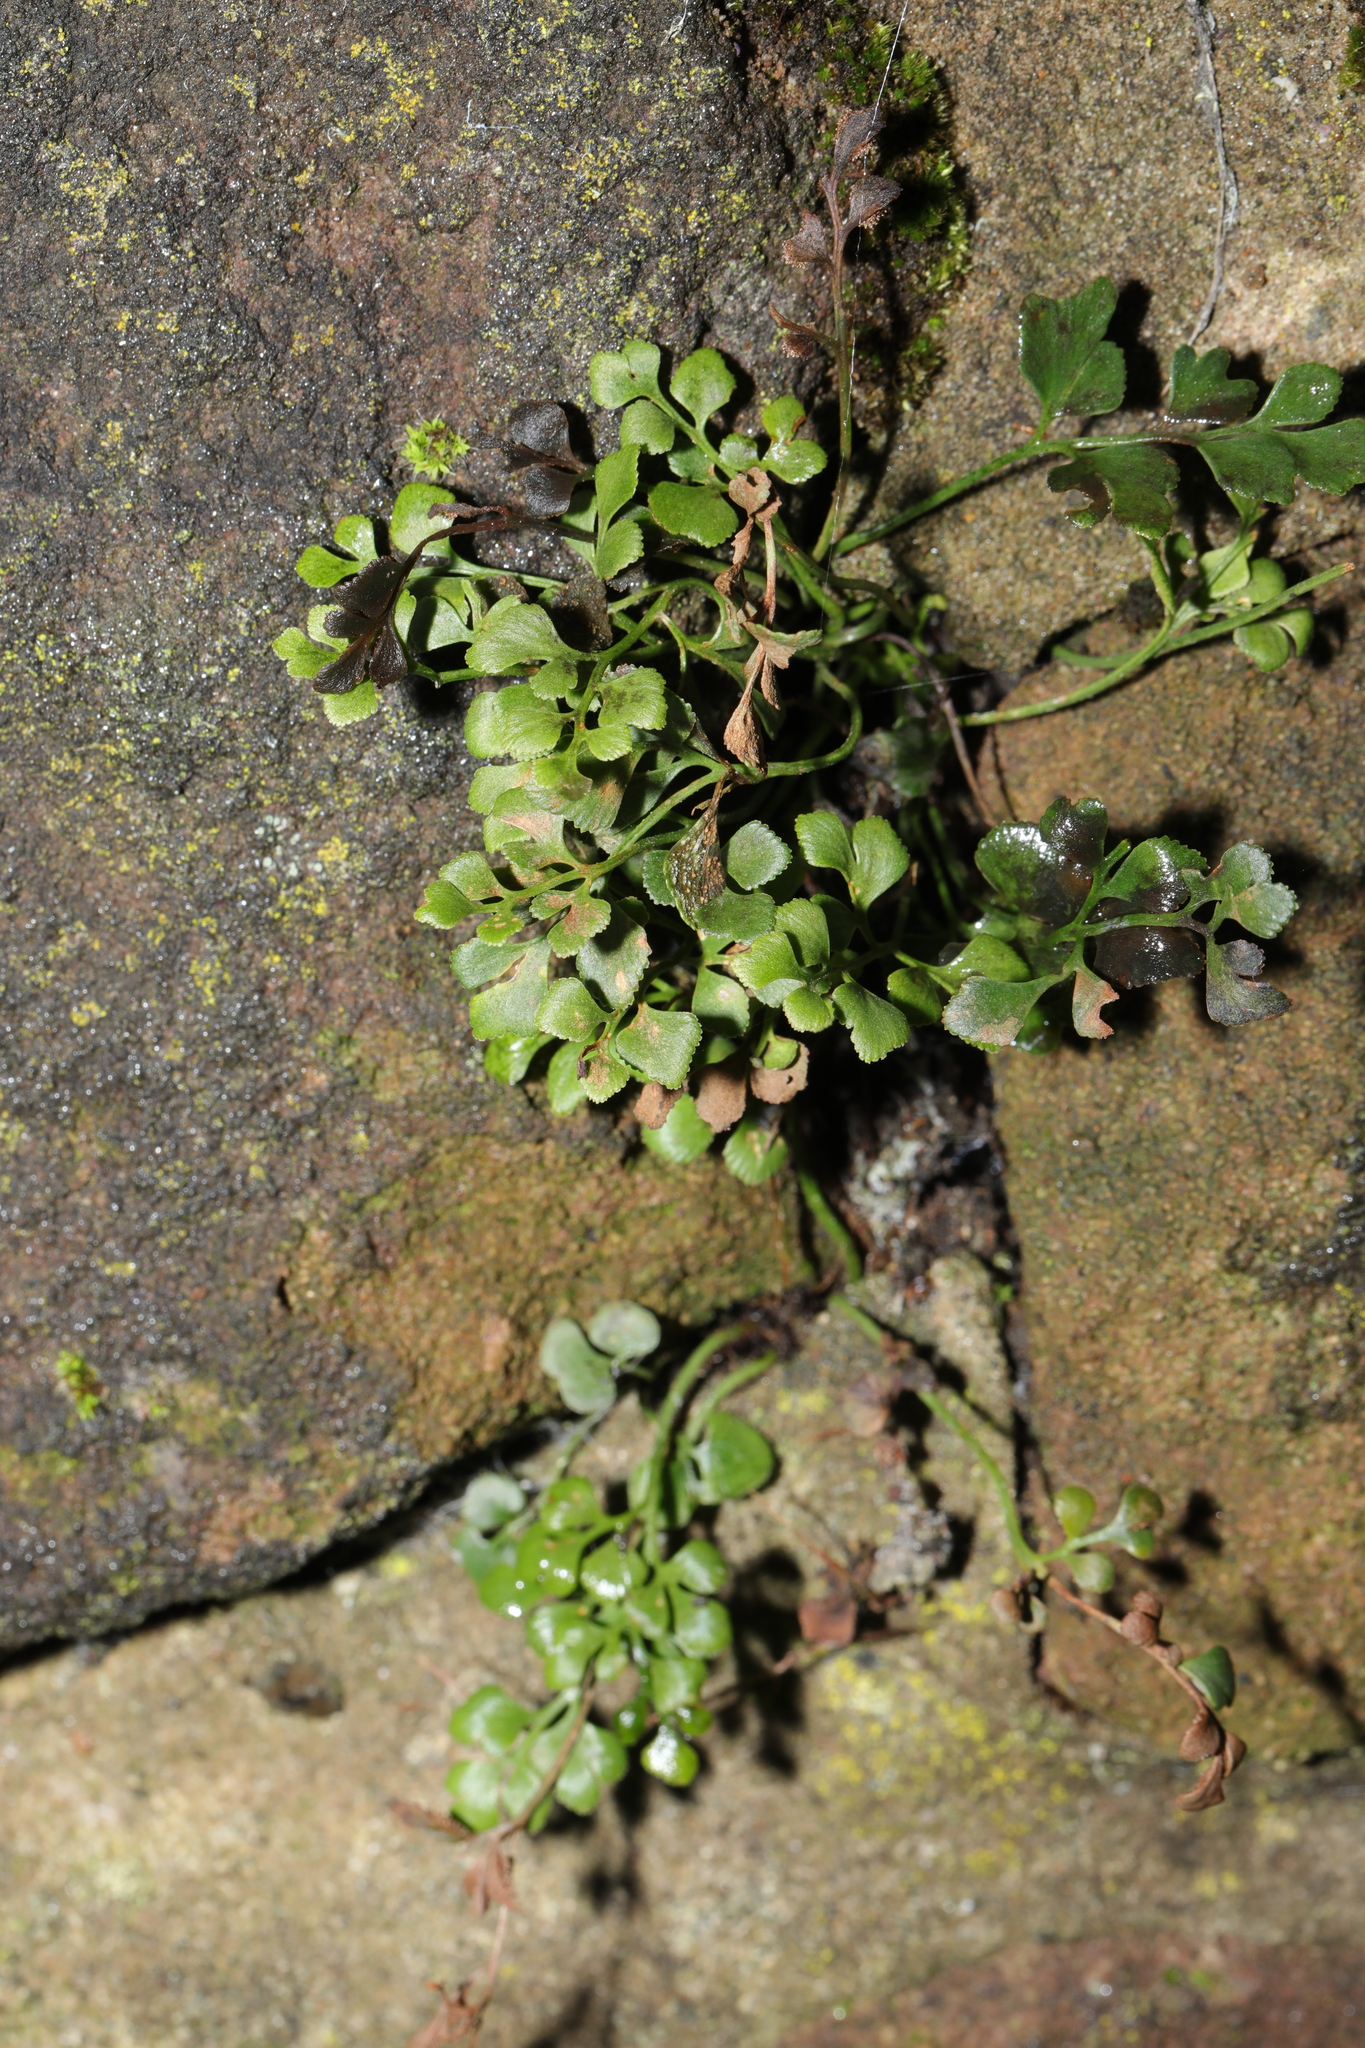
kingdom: Plantae
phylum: Tracheophyta
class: Polypodiopsida
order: Polypodiales
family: Aspleniaceae
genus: Asplenium
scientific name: Asplenium ruta-muraria
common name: Wall-rue
